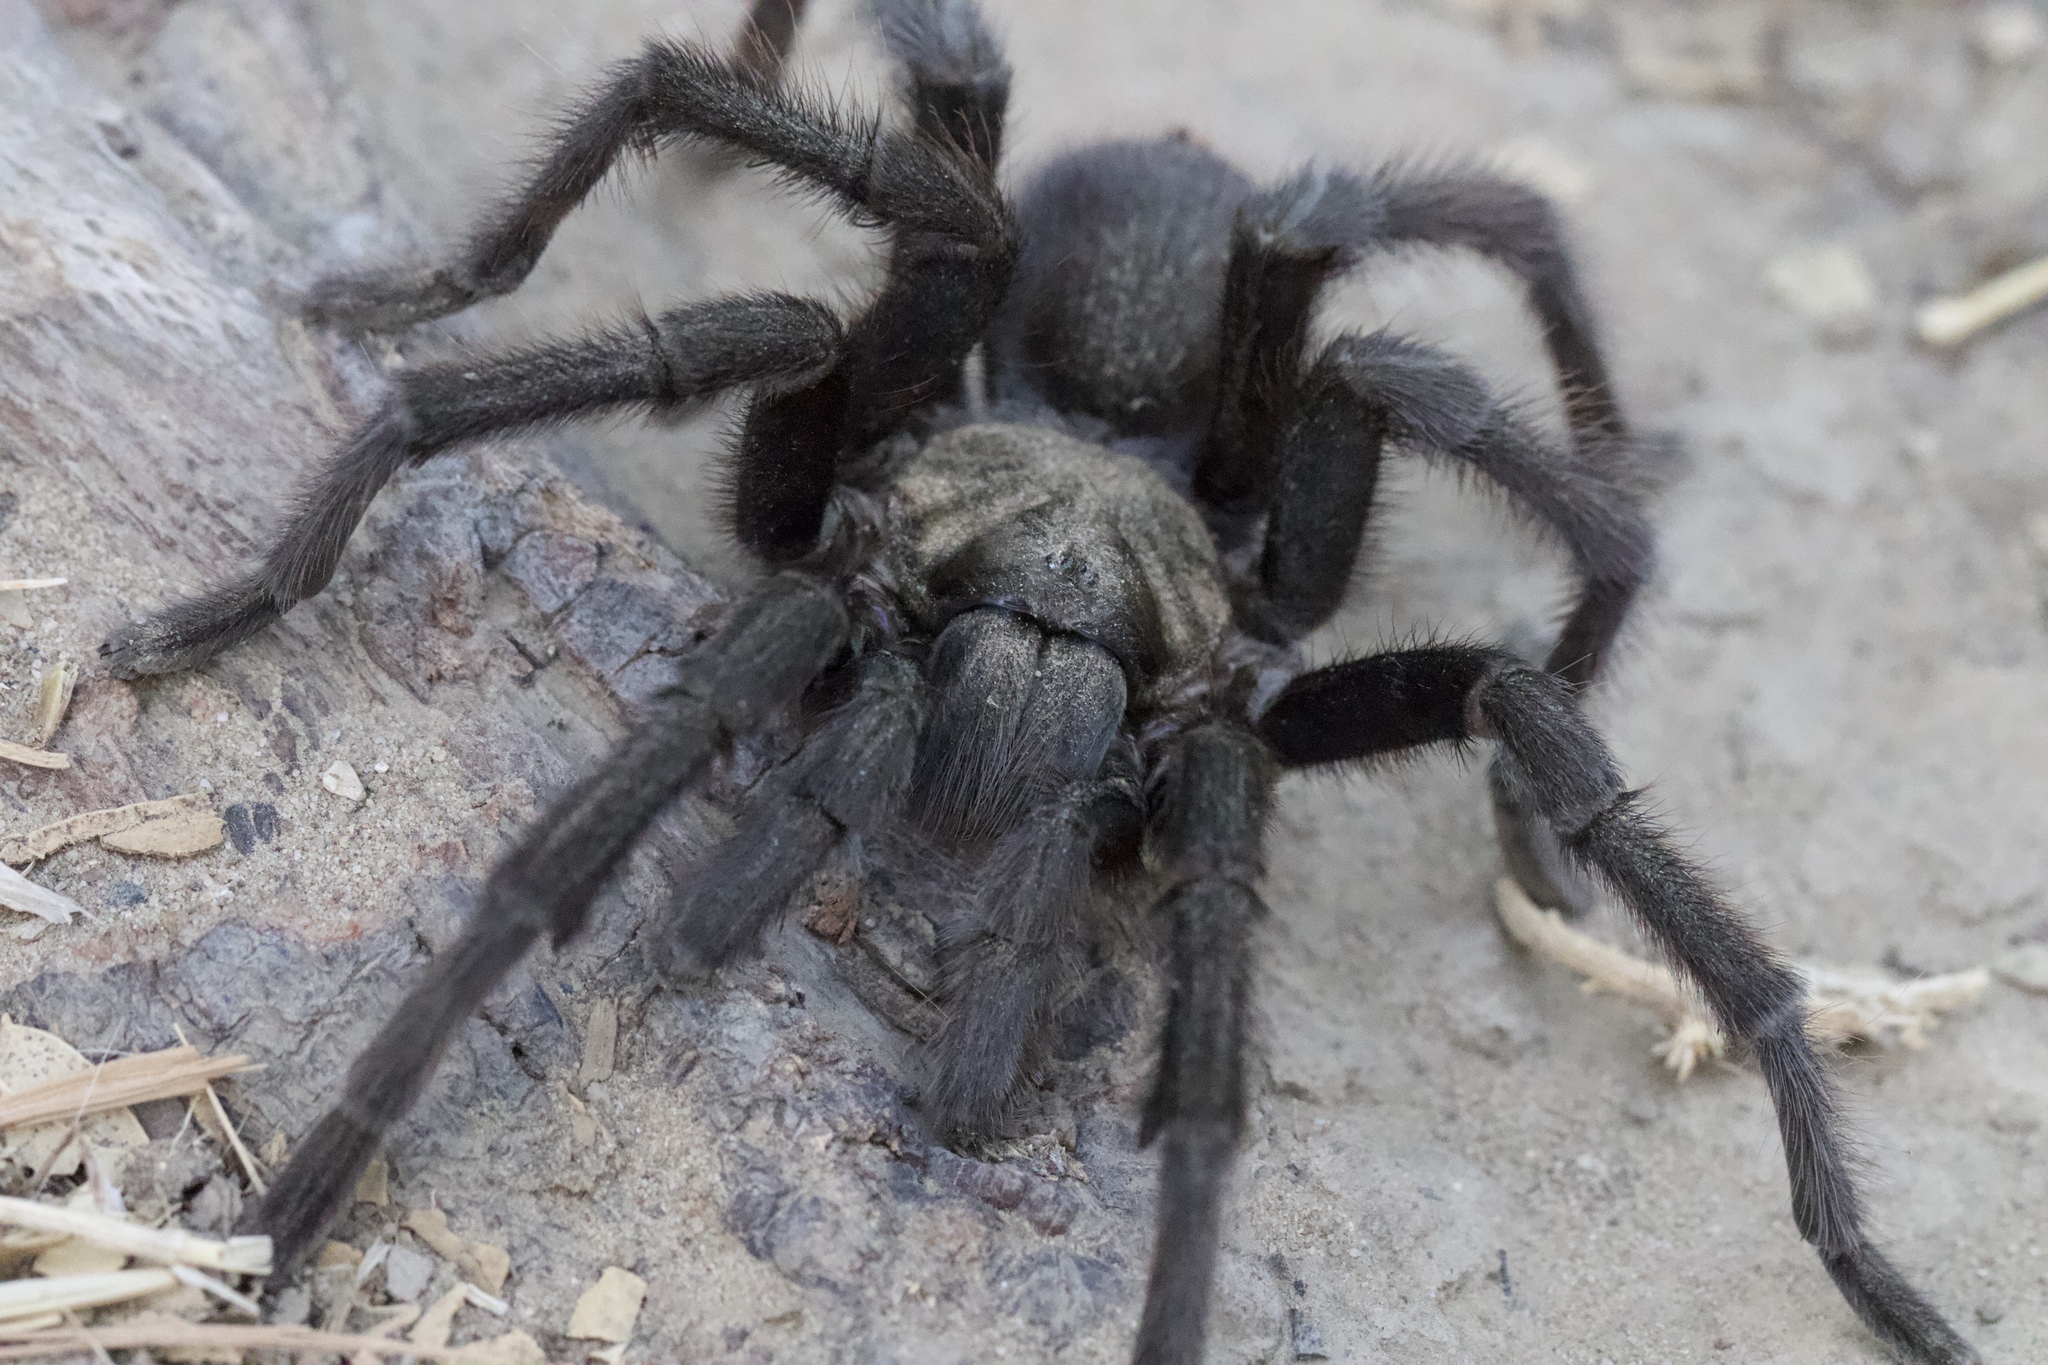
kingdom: Animalia
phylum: Arthropoda
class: Arachnida
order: Araneae
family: Theraphosidae
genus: Aphonopelma
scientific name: Aphonopelma iodius
